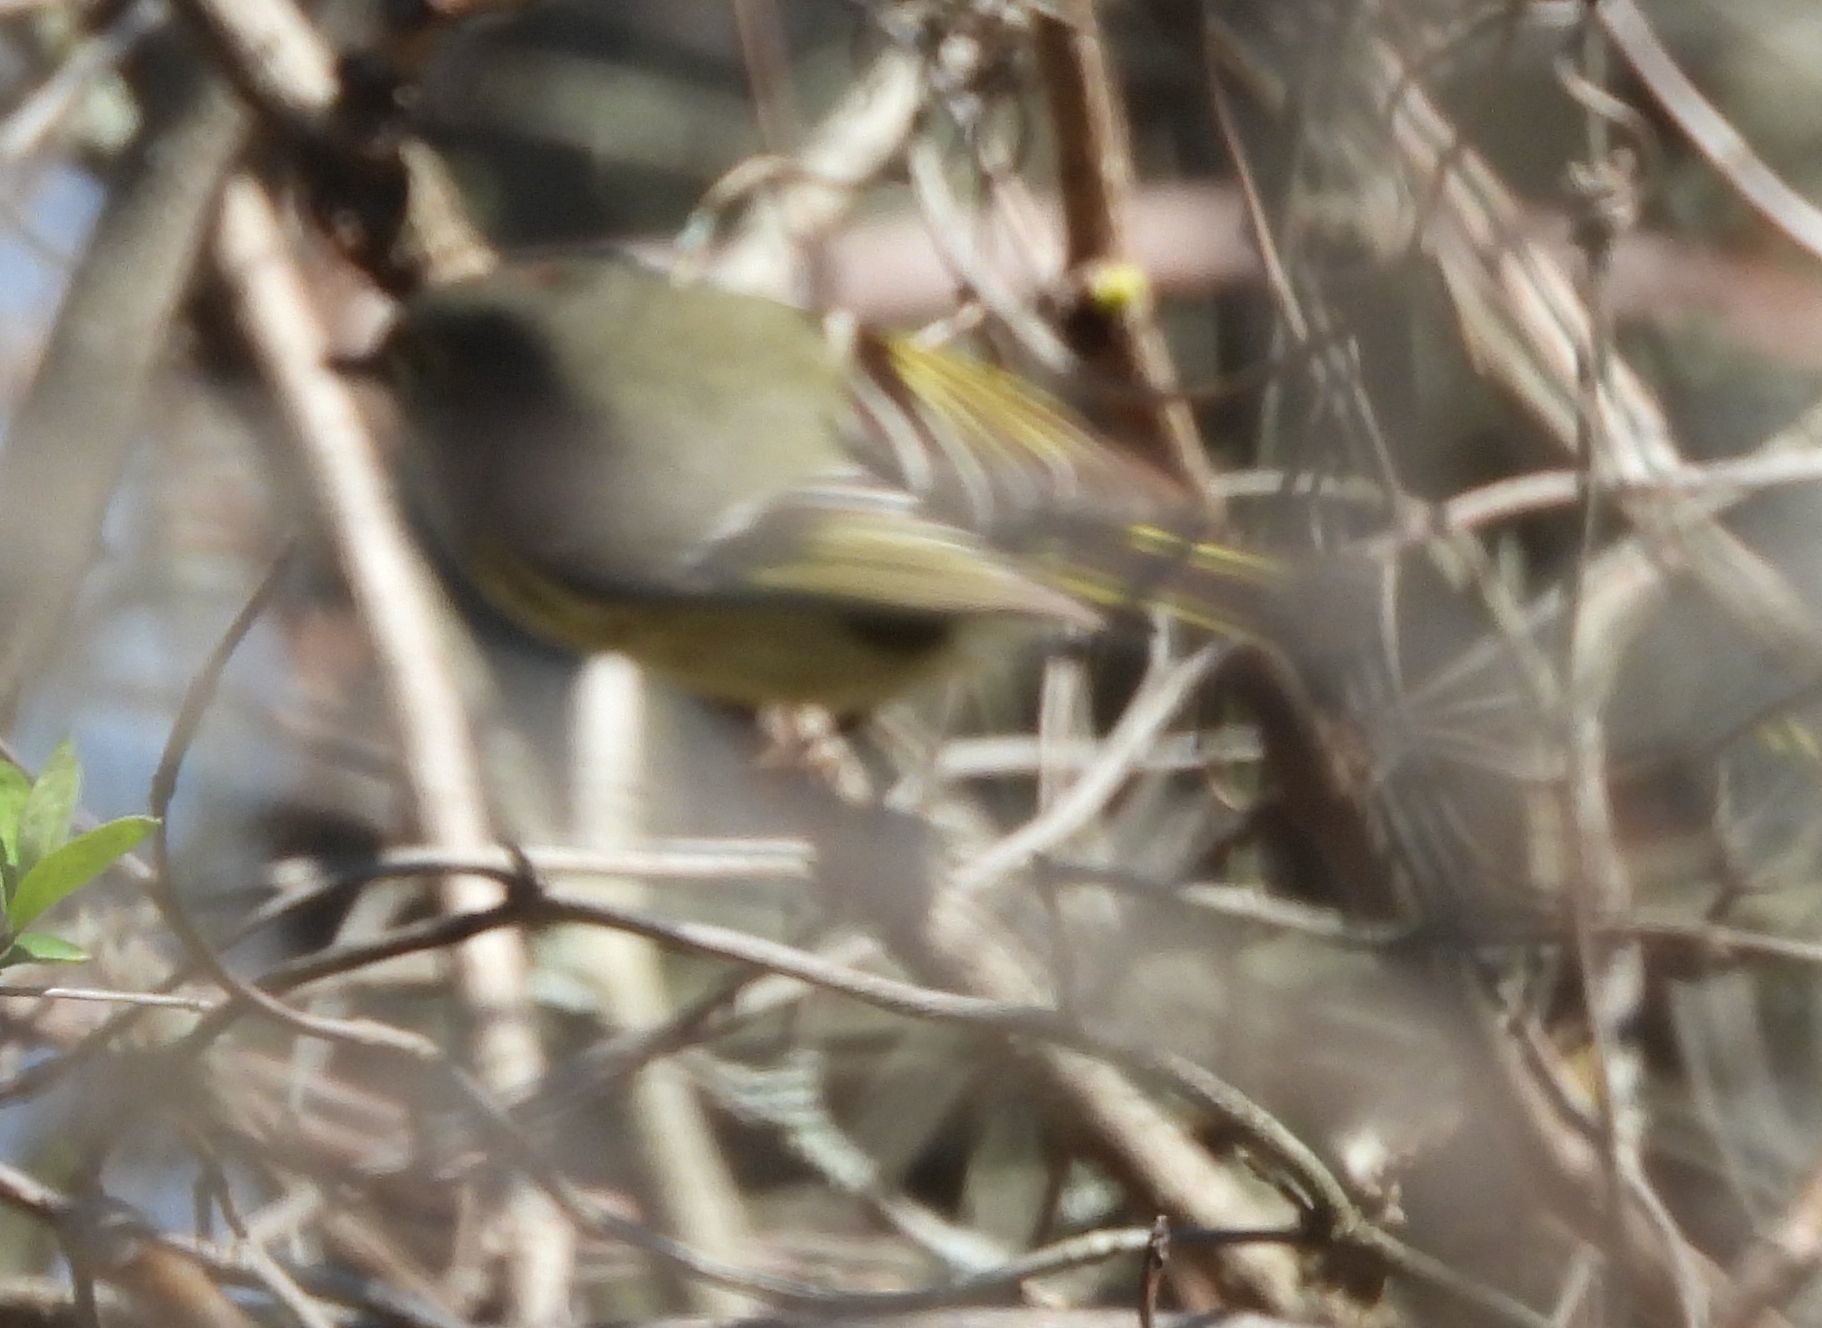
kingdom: Animalia
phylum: Chordata
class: Aves
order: Passeriformes
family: Regulidae
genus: Regulus
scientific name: Regulus calendula
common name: Ruby-crowned kinglet
